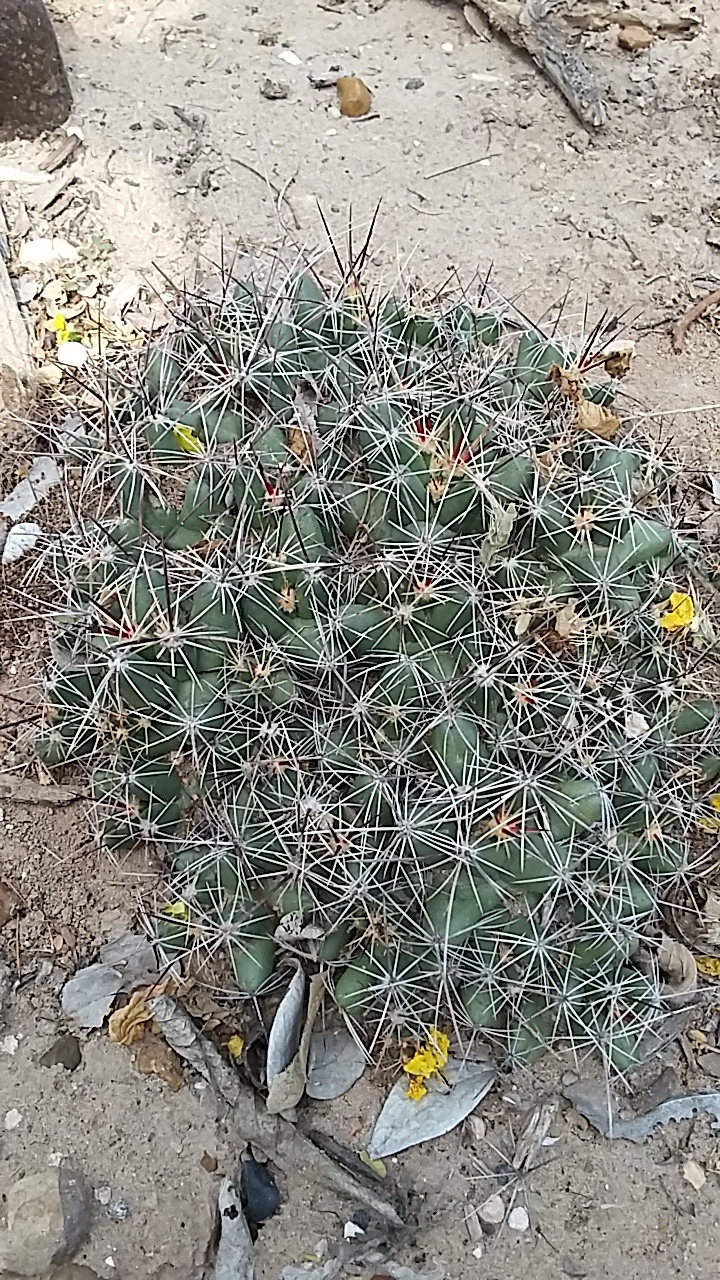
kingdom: Plantae
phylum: Tracheophyta
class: Magnoliopsida
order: Caryophyllales
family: Cactaceae
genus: Pelecyphora
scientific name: Pelecyphora macromeris
